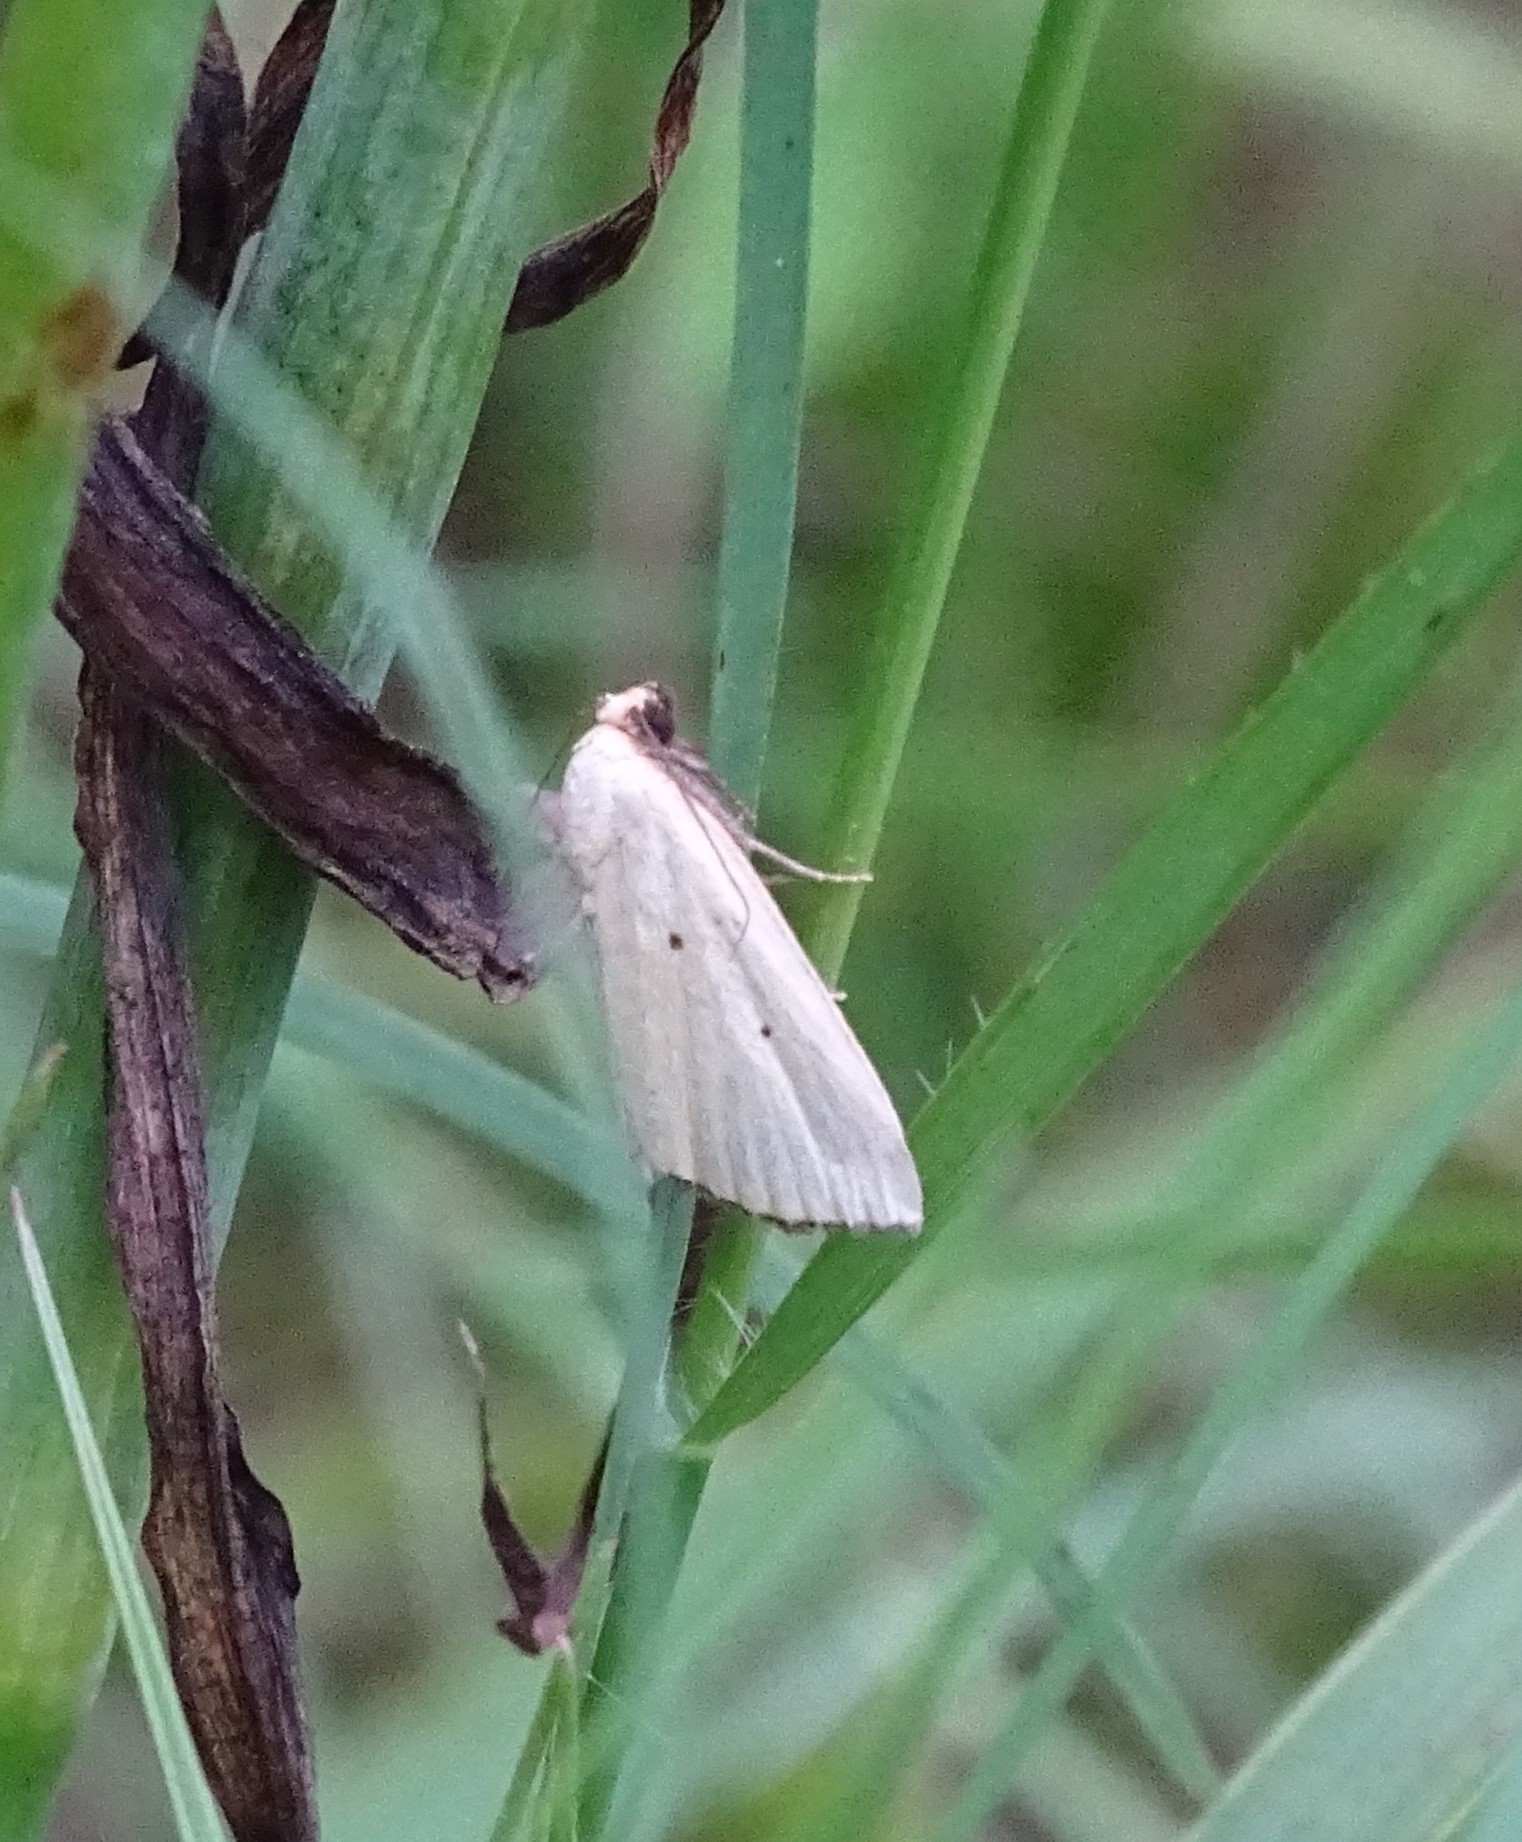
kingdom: Animalia
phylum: Arthropoda
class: Insecta
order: Lepidoptera
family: Noctuidae
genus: Marimatha
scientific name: Marimatha nigrofimbria
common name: Black-bordered lemon moth
